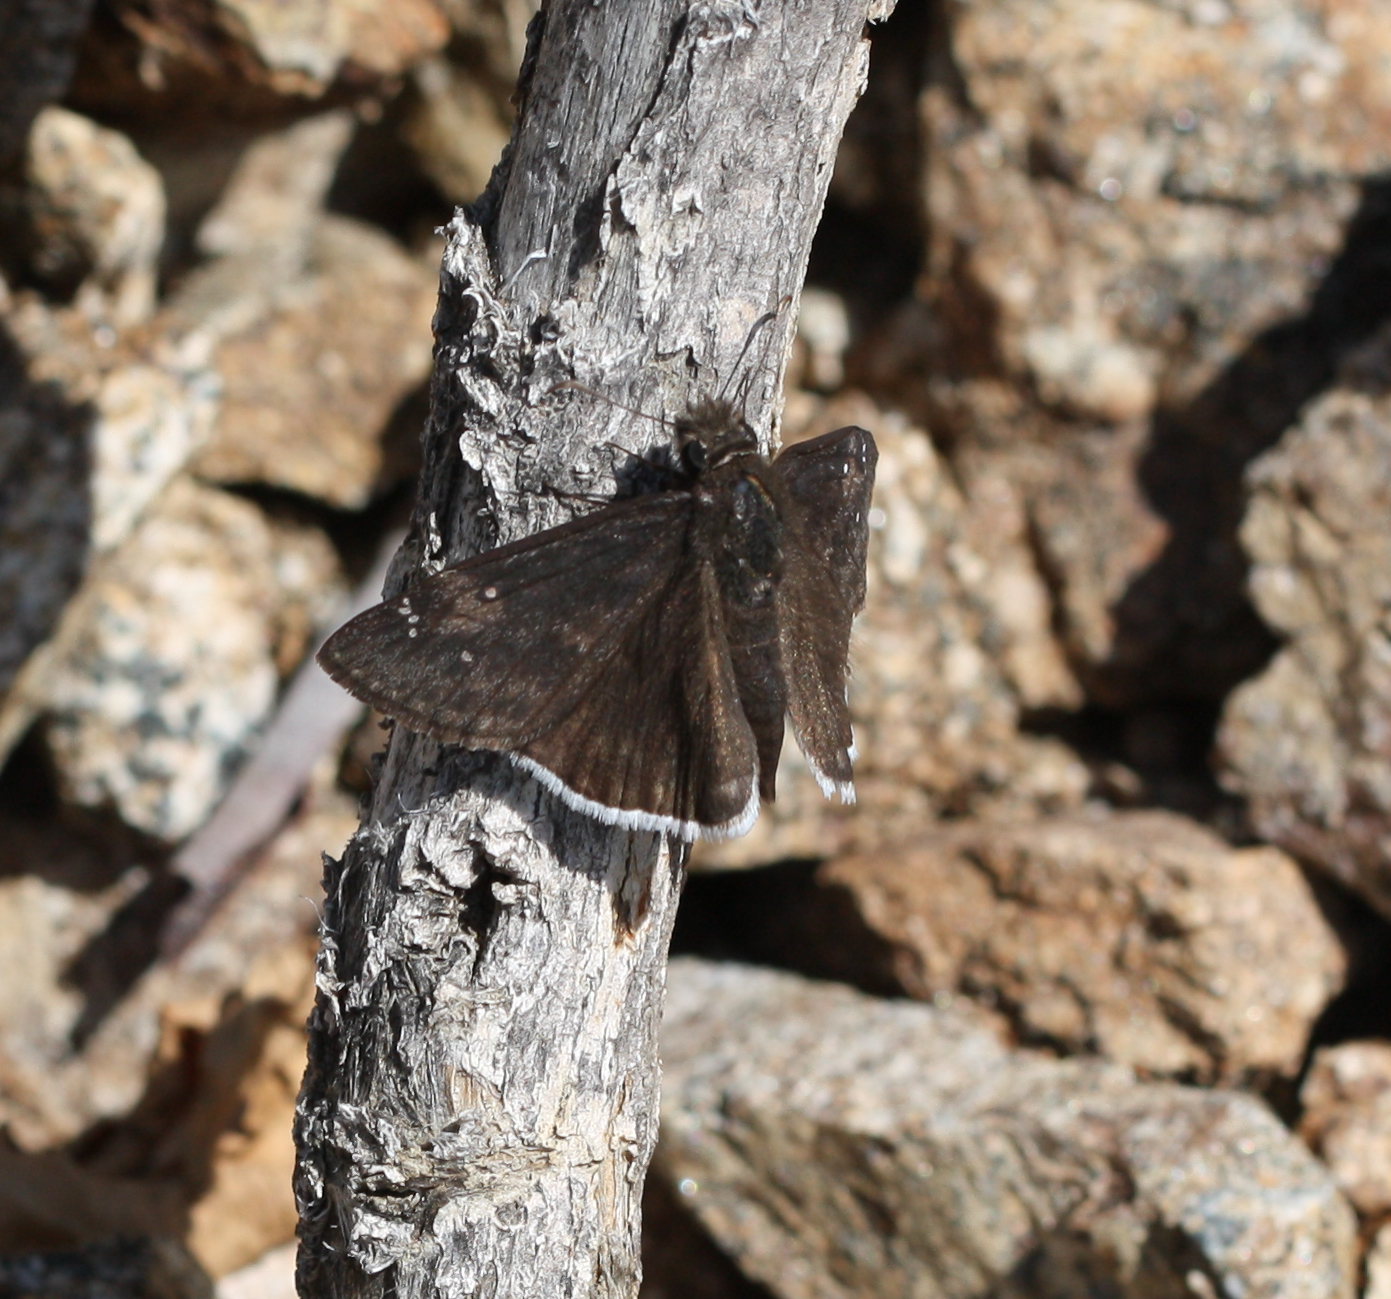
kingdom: Animalia
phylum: Arthropoda
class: Insecta
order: Lepidoptera
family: Hesperiidae
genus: Erynnis
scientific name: Erynnis funeralis
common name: Funereal duskywing
